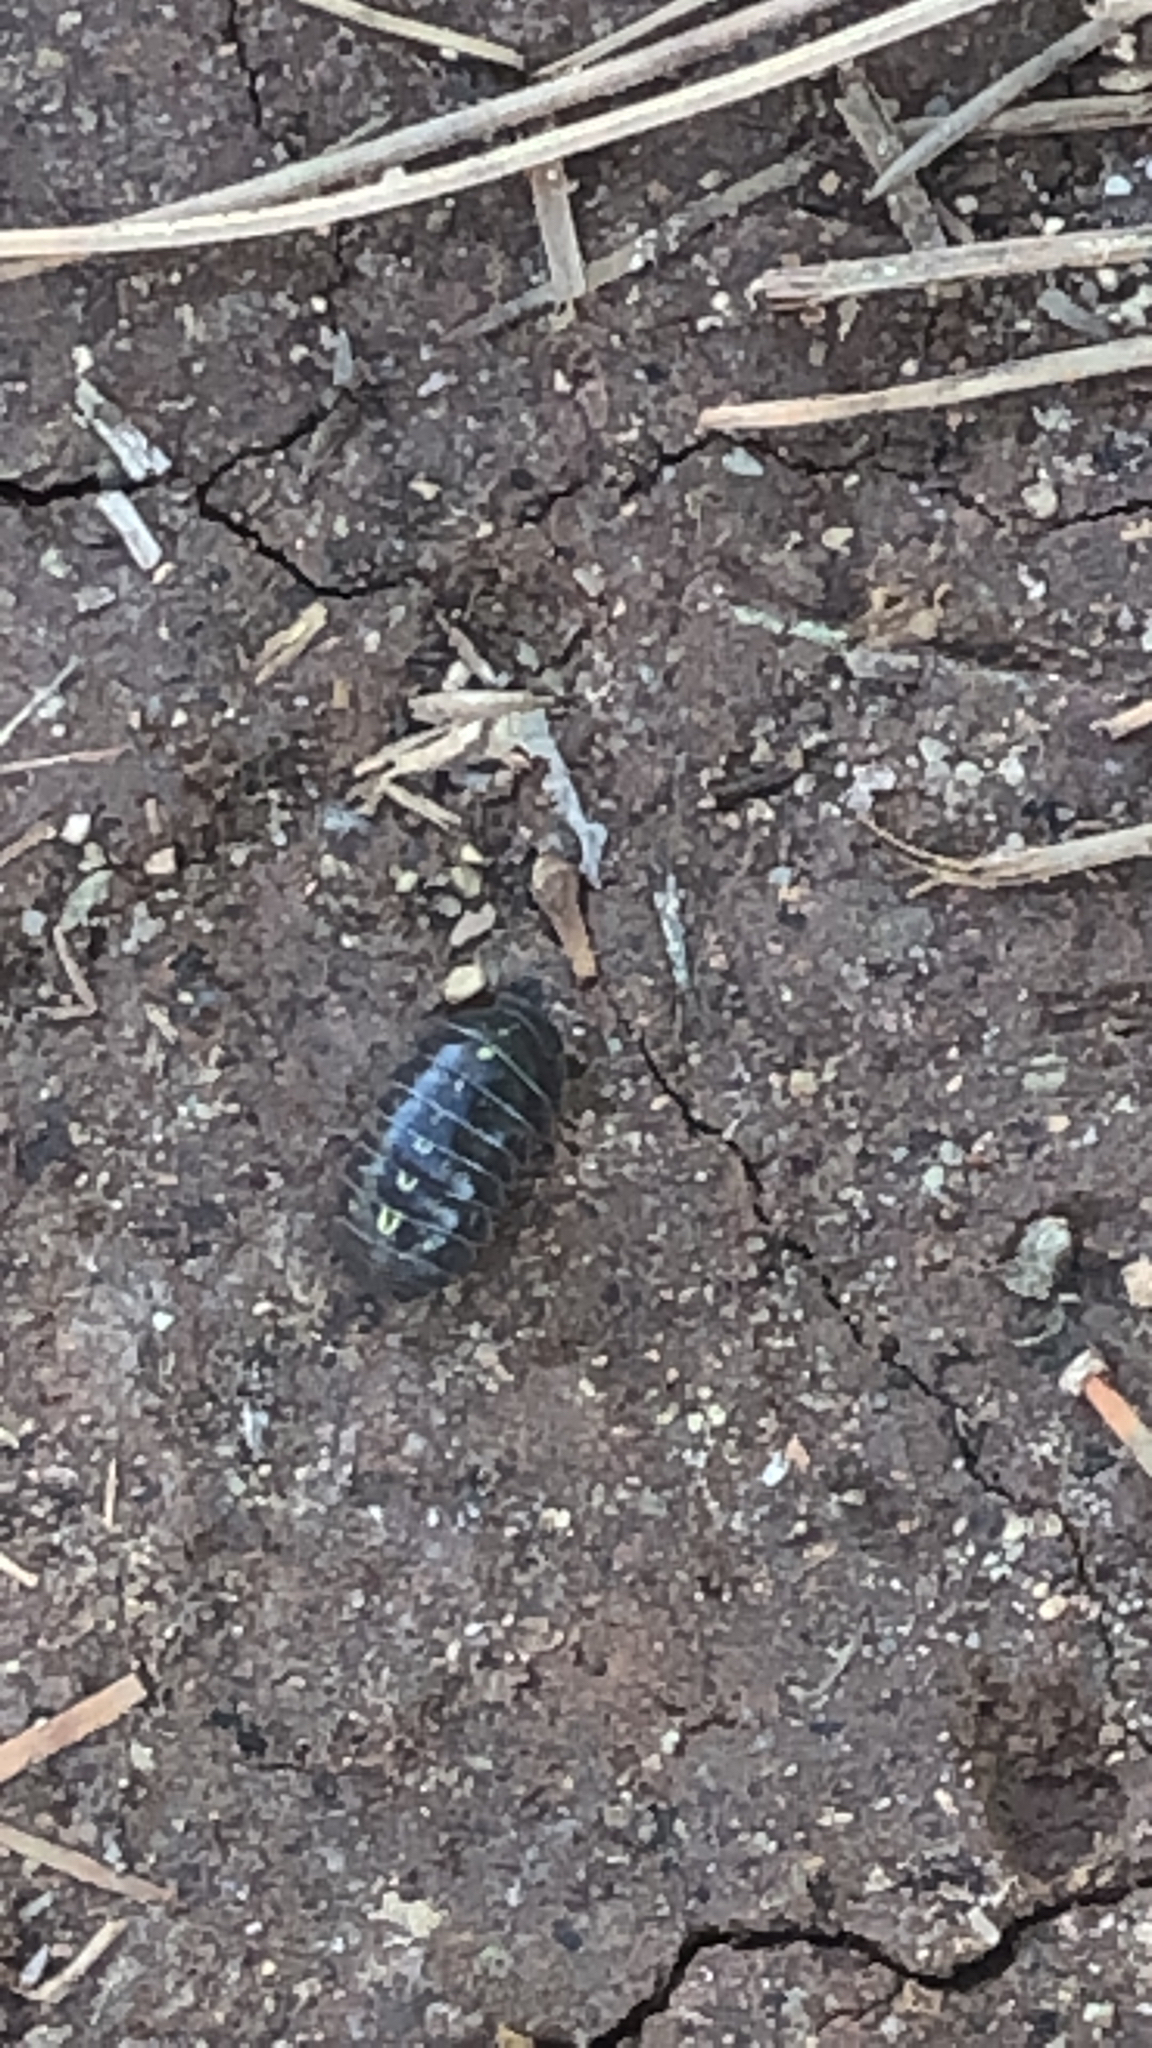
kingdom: Animalia
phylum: Arthropoda
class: Malacostraca
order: Isopoda
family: Armadillidiidae
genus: Armadillidium
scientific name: Armadillidium vulgare
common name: Common pill woodlouse
